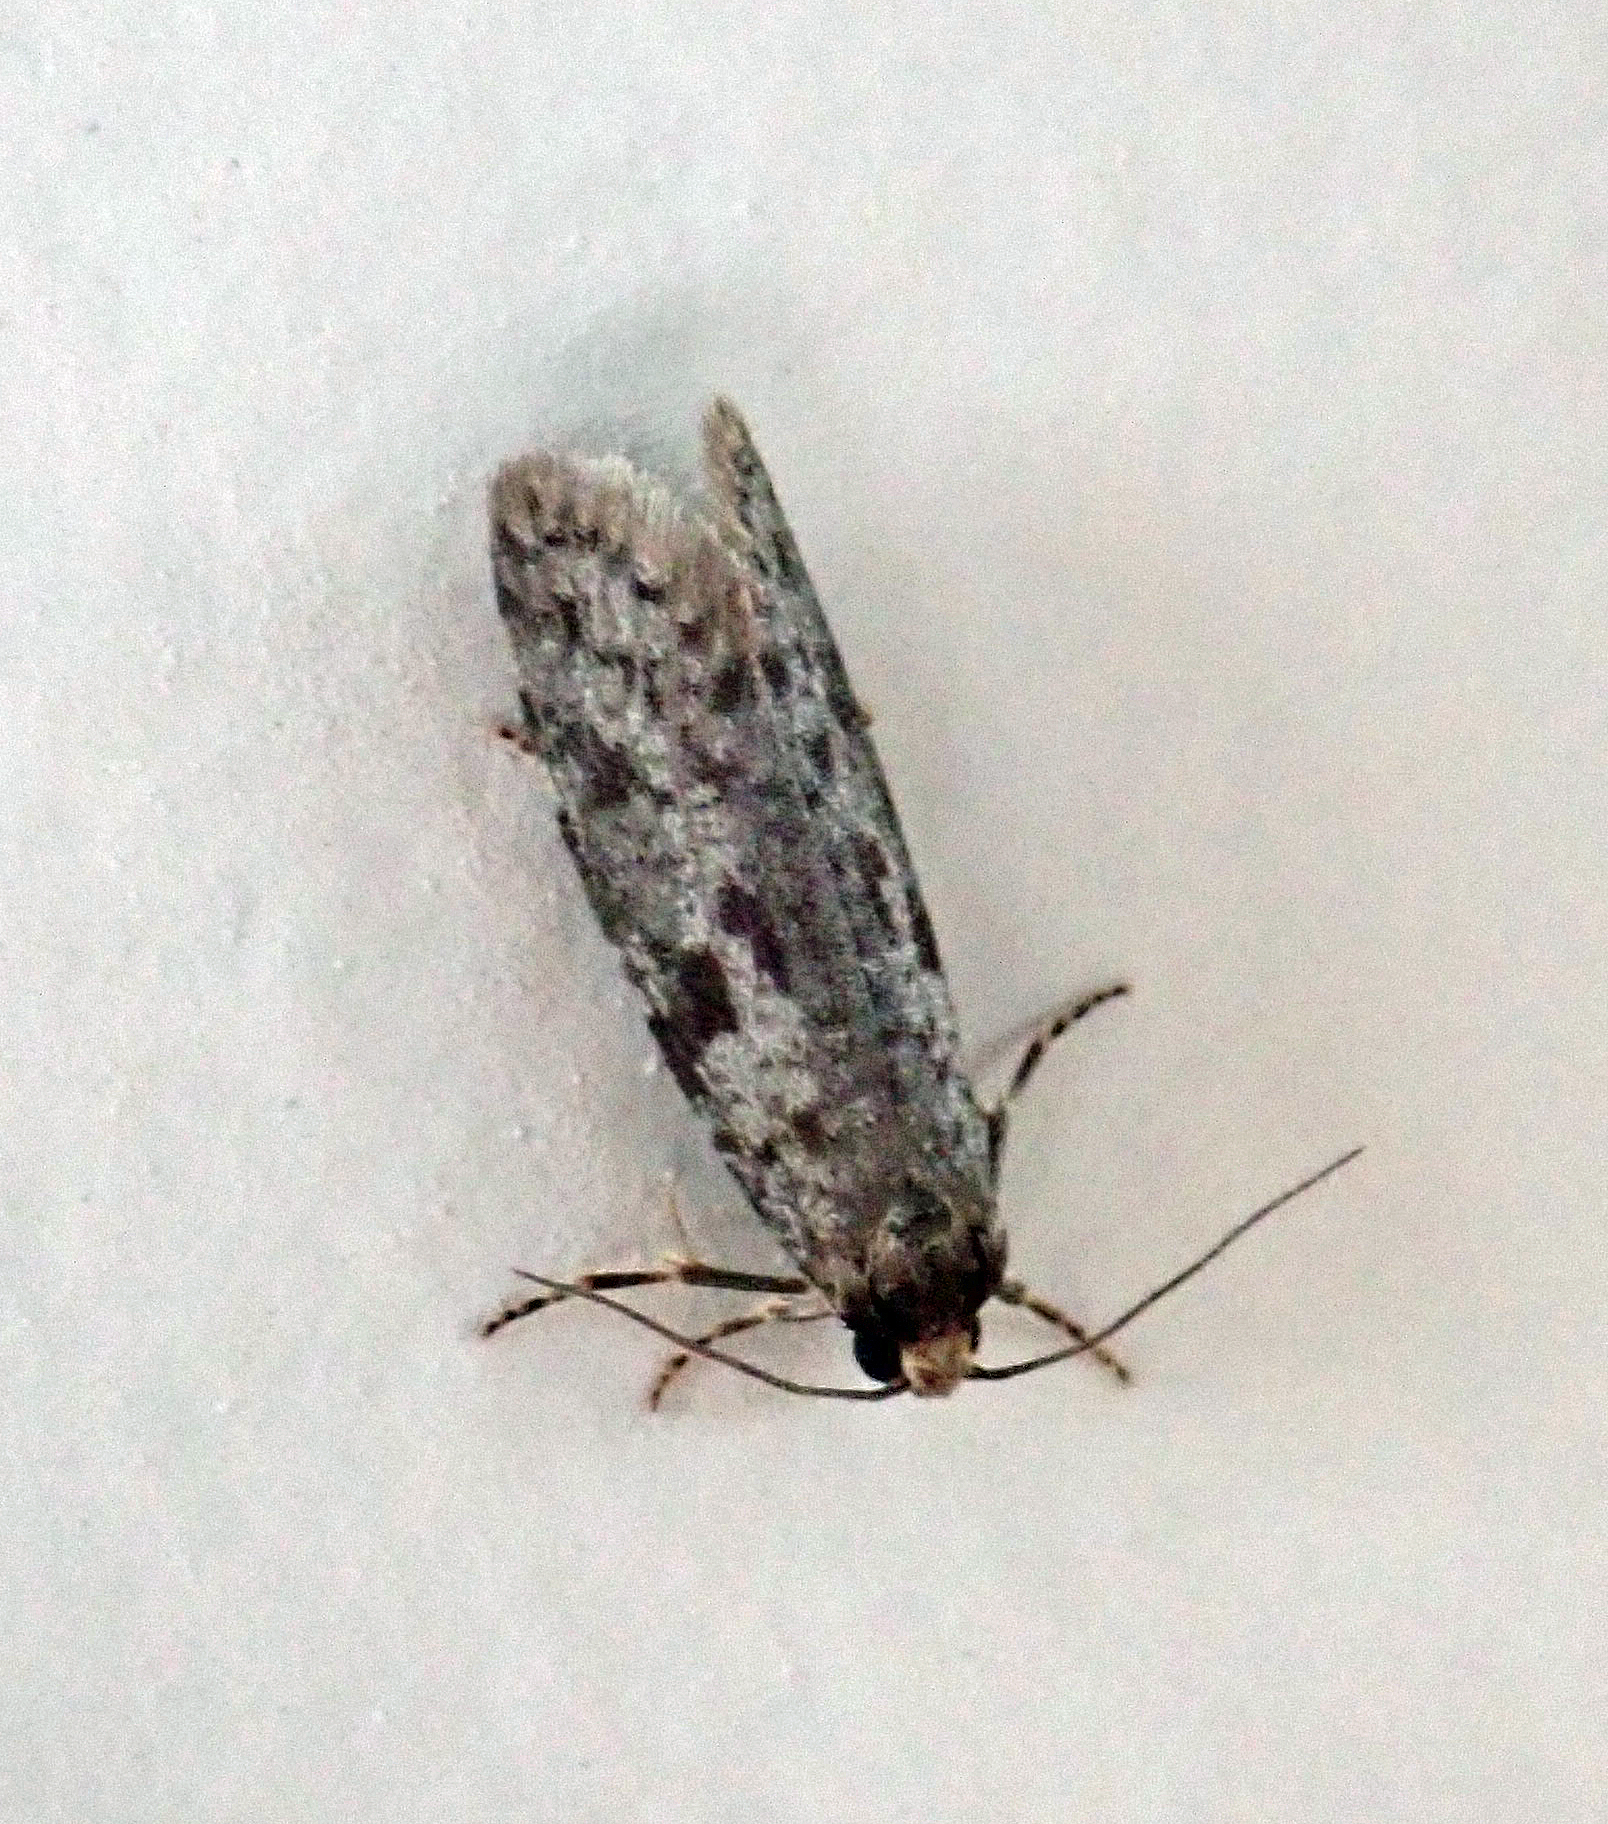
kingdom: Animalia
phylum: Arthropoda
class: Insecta
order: Lepidoptera
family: Psychidae
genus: Lepidoscia
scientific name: Lepidoscia protorna
